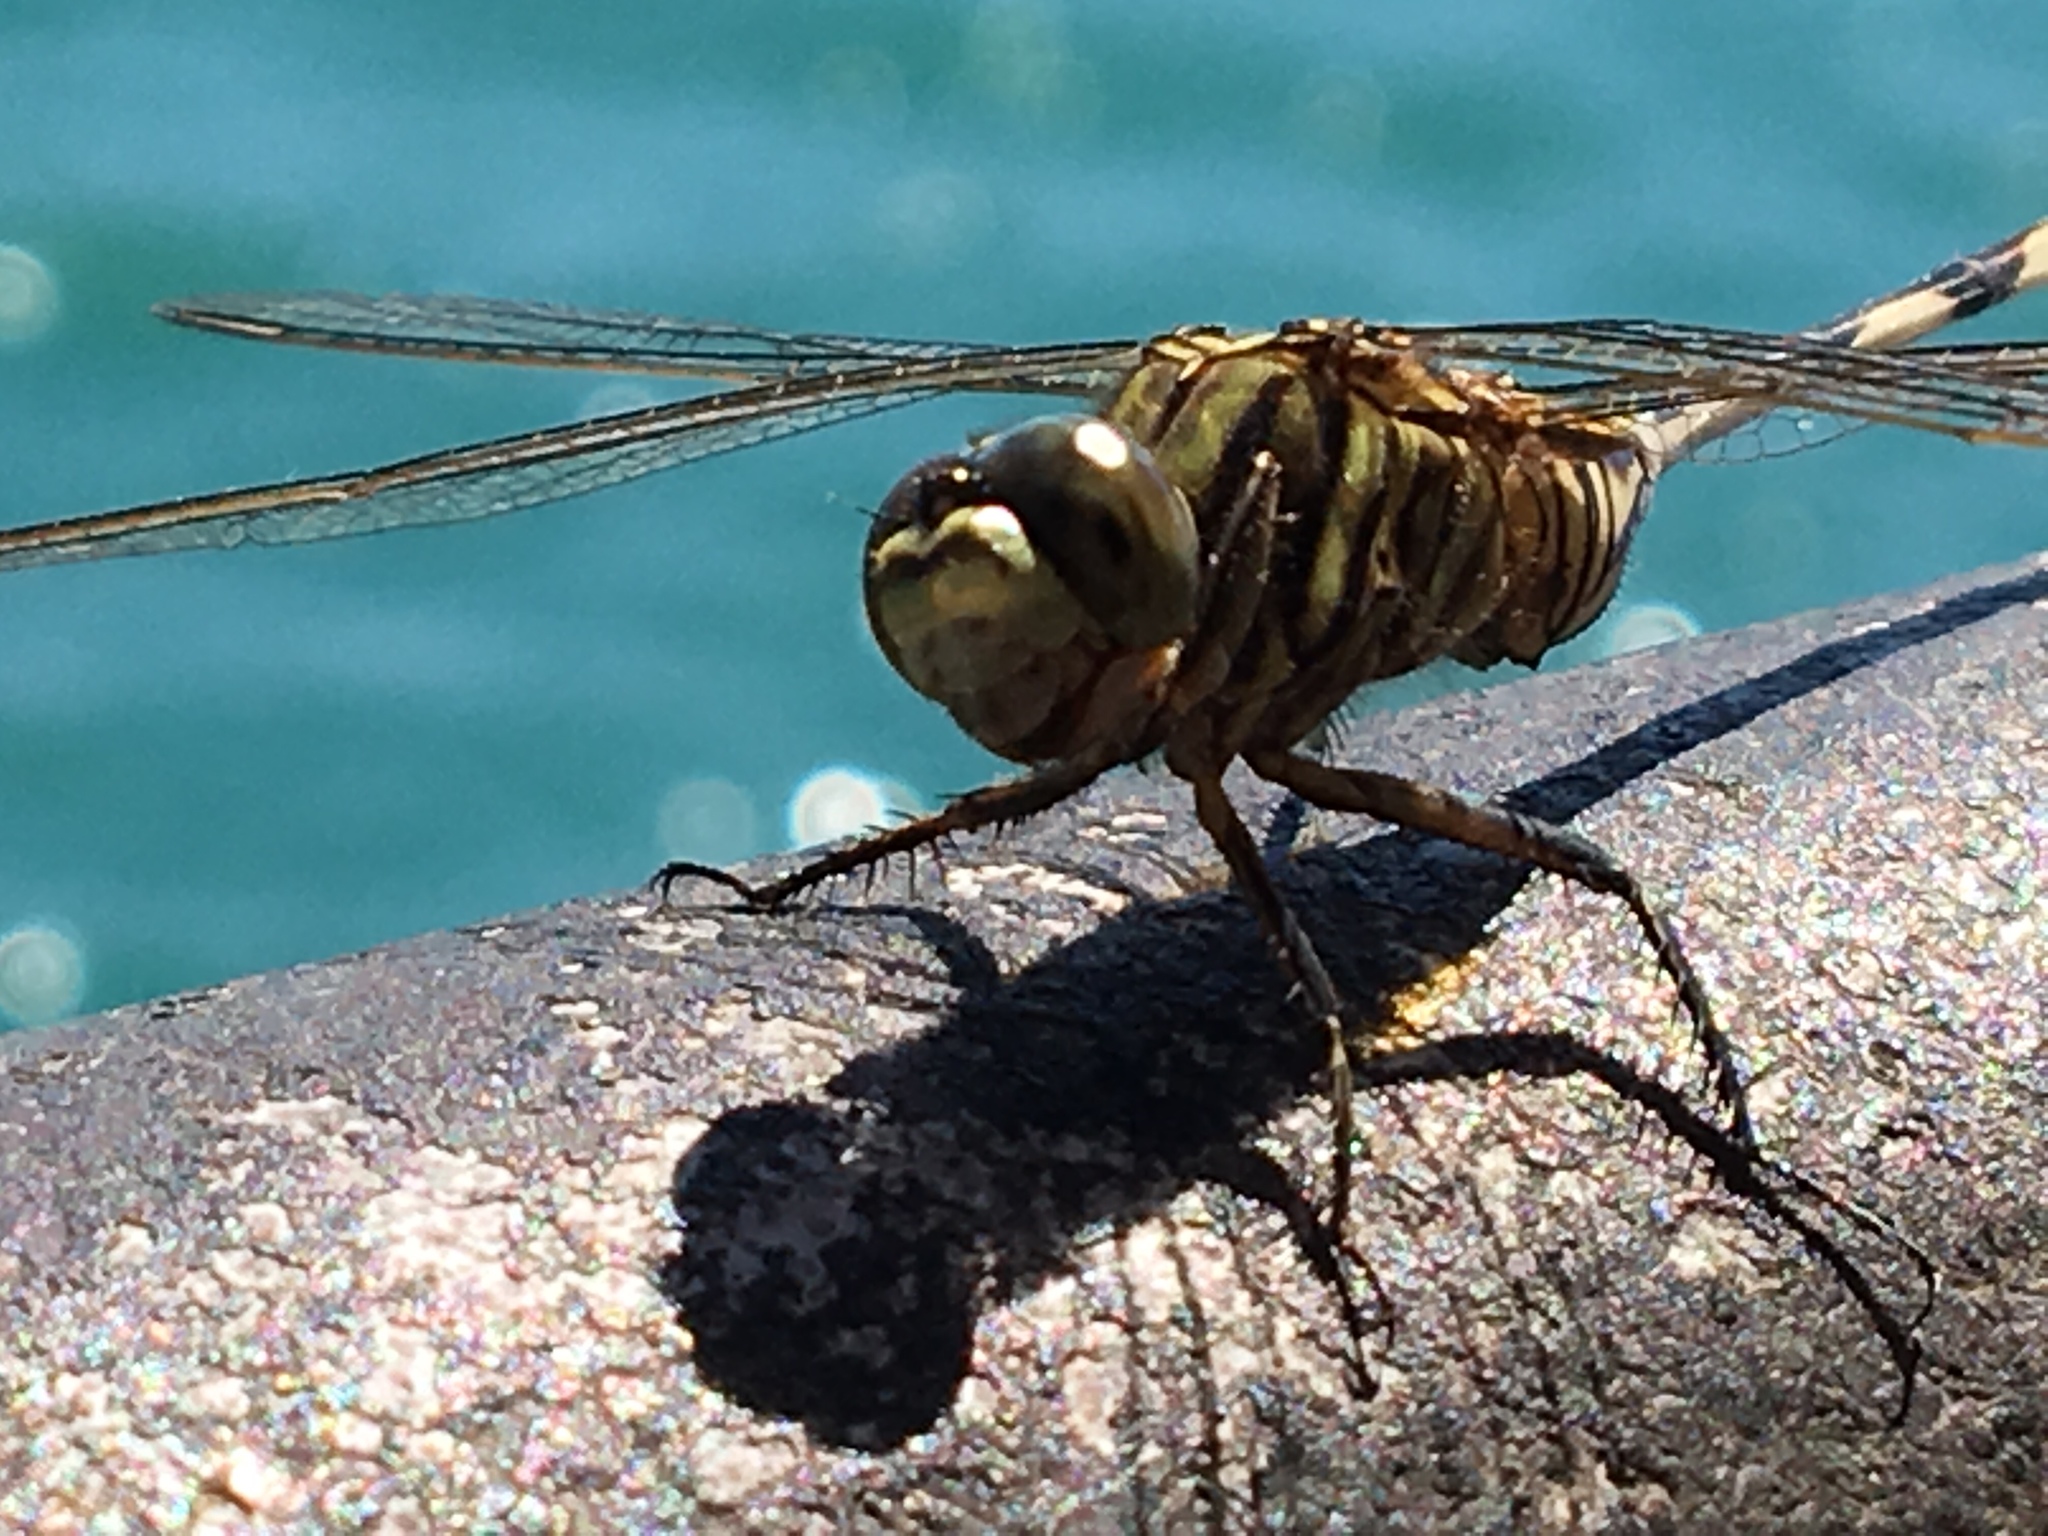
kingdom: Animalia
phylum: Arthropoda
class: Insecta
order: Odonata
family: Libellulidae
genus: Orthetrum
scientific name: Orthetrum sabina
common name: Slender skimmer
